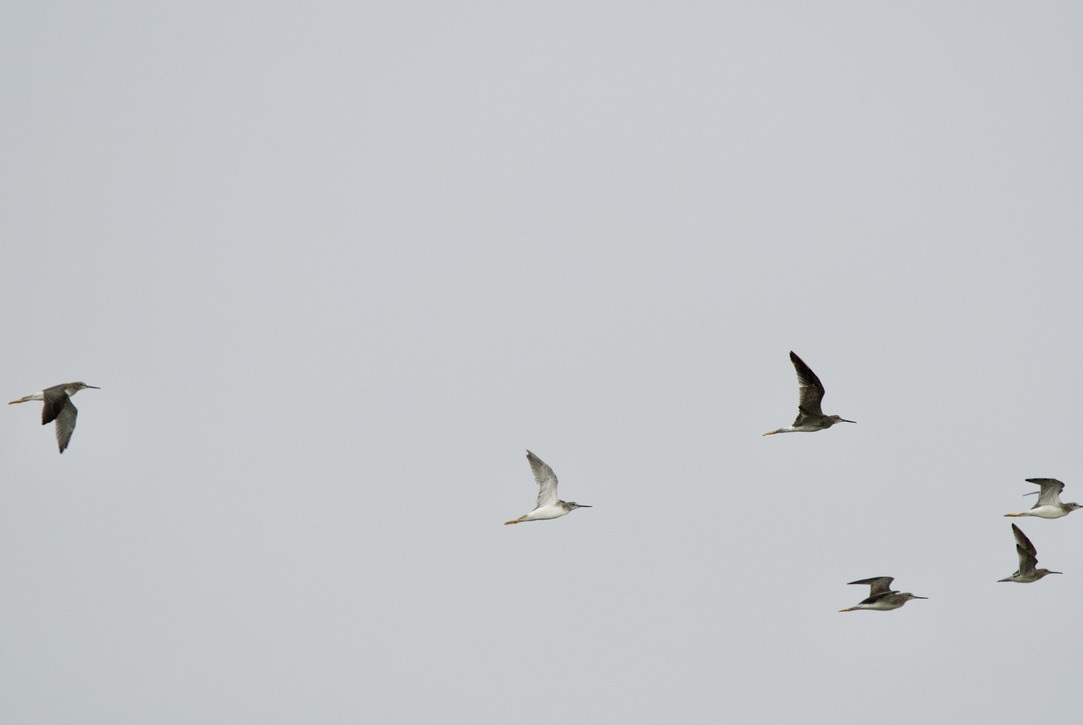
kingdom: Animalia
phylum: Chordata
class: Aves
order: Charadriiformes
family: Scolopacidae
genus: Tringa
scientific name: Tringa melanoleuca
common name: Greater yellowlegs
